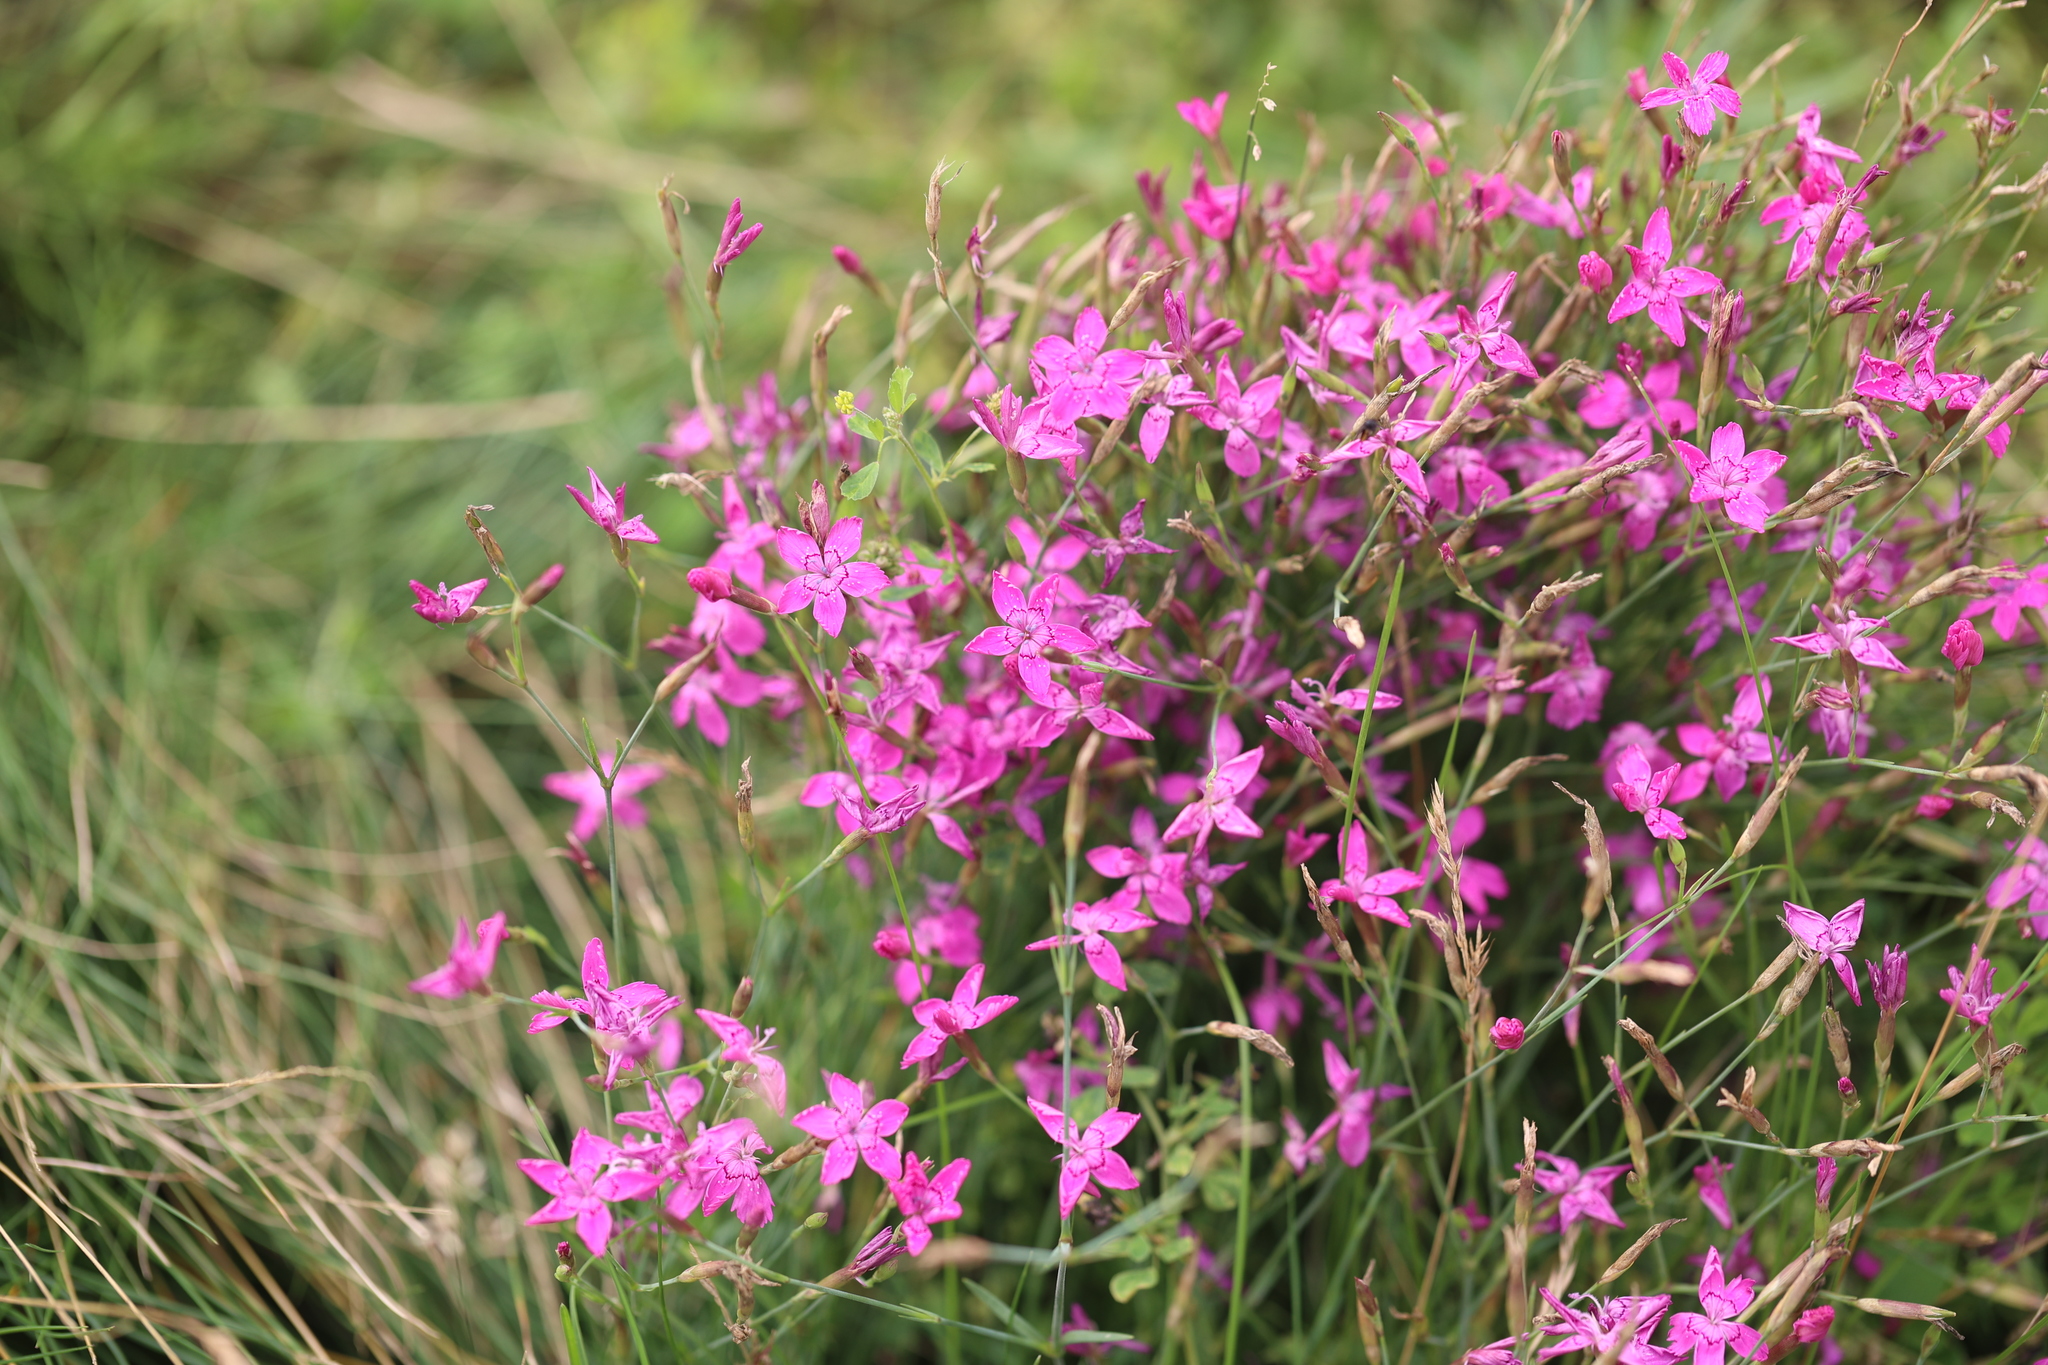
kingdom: Plantae
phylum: Tracheophyta
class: Magnoliopsida
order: Caryophyllales
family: Caryophyllaceae
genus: Dianthus
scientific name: Dianthus deltoides
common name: Maiden pink
